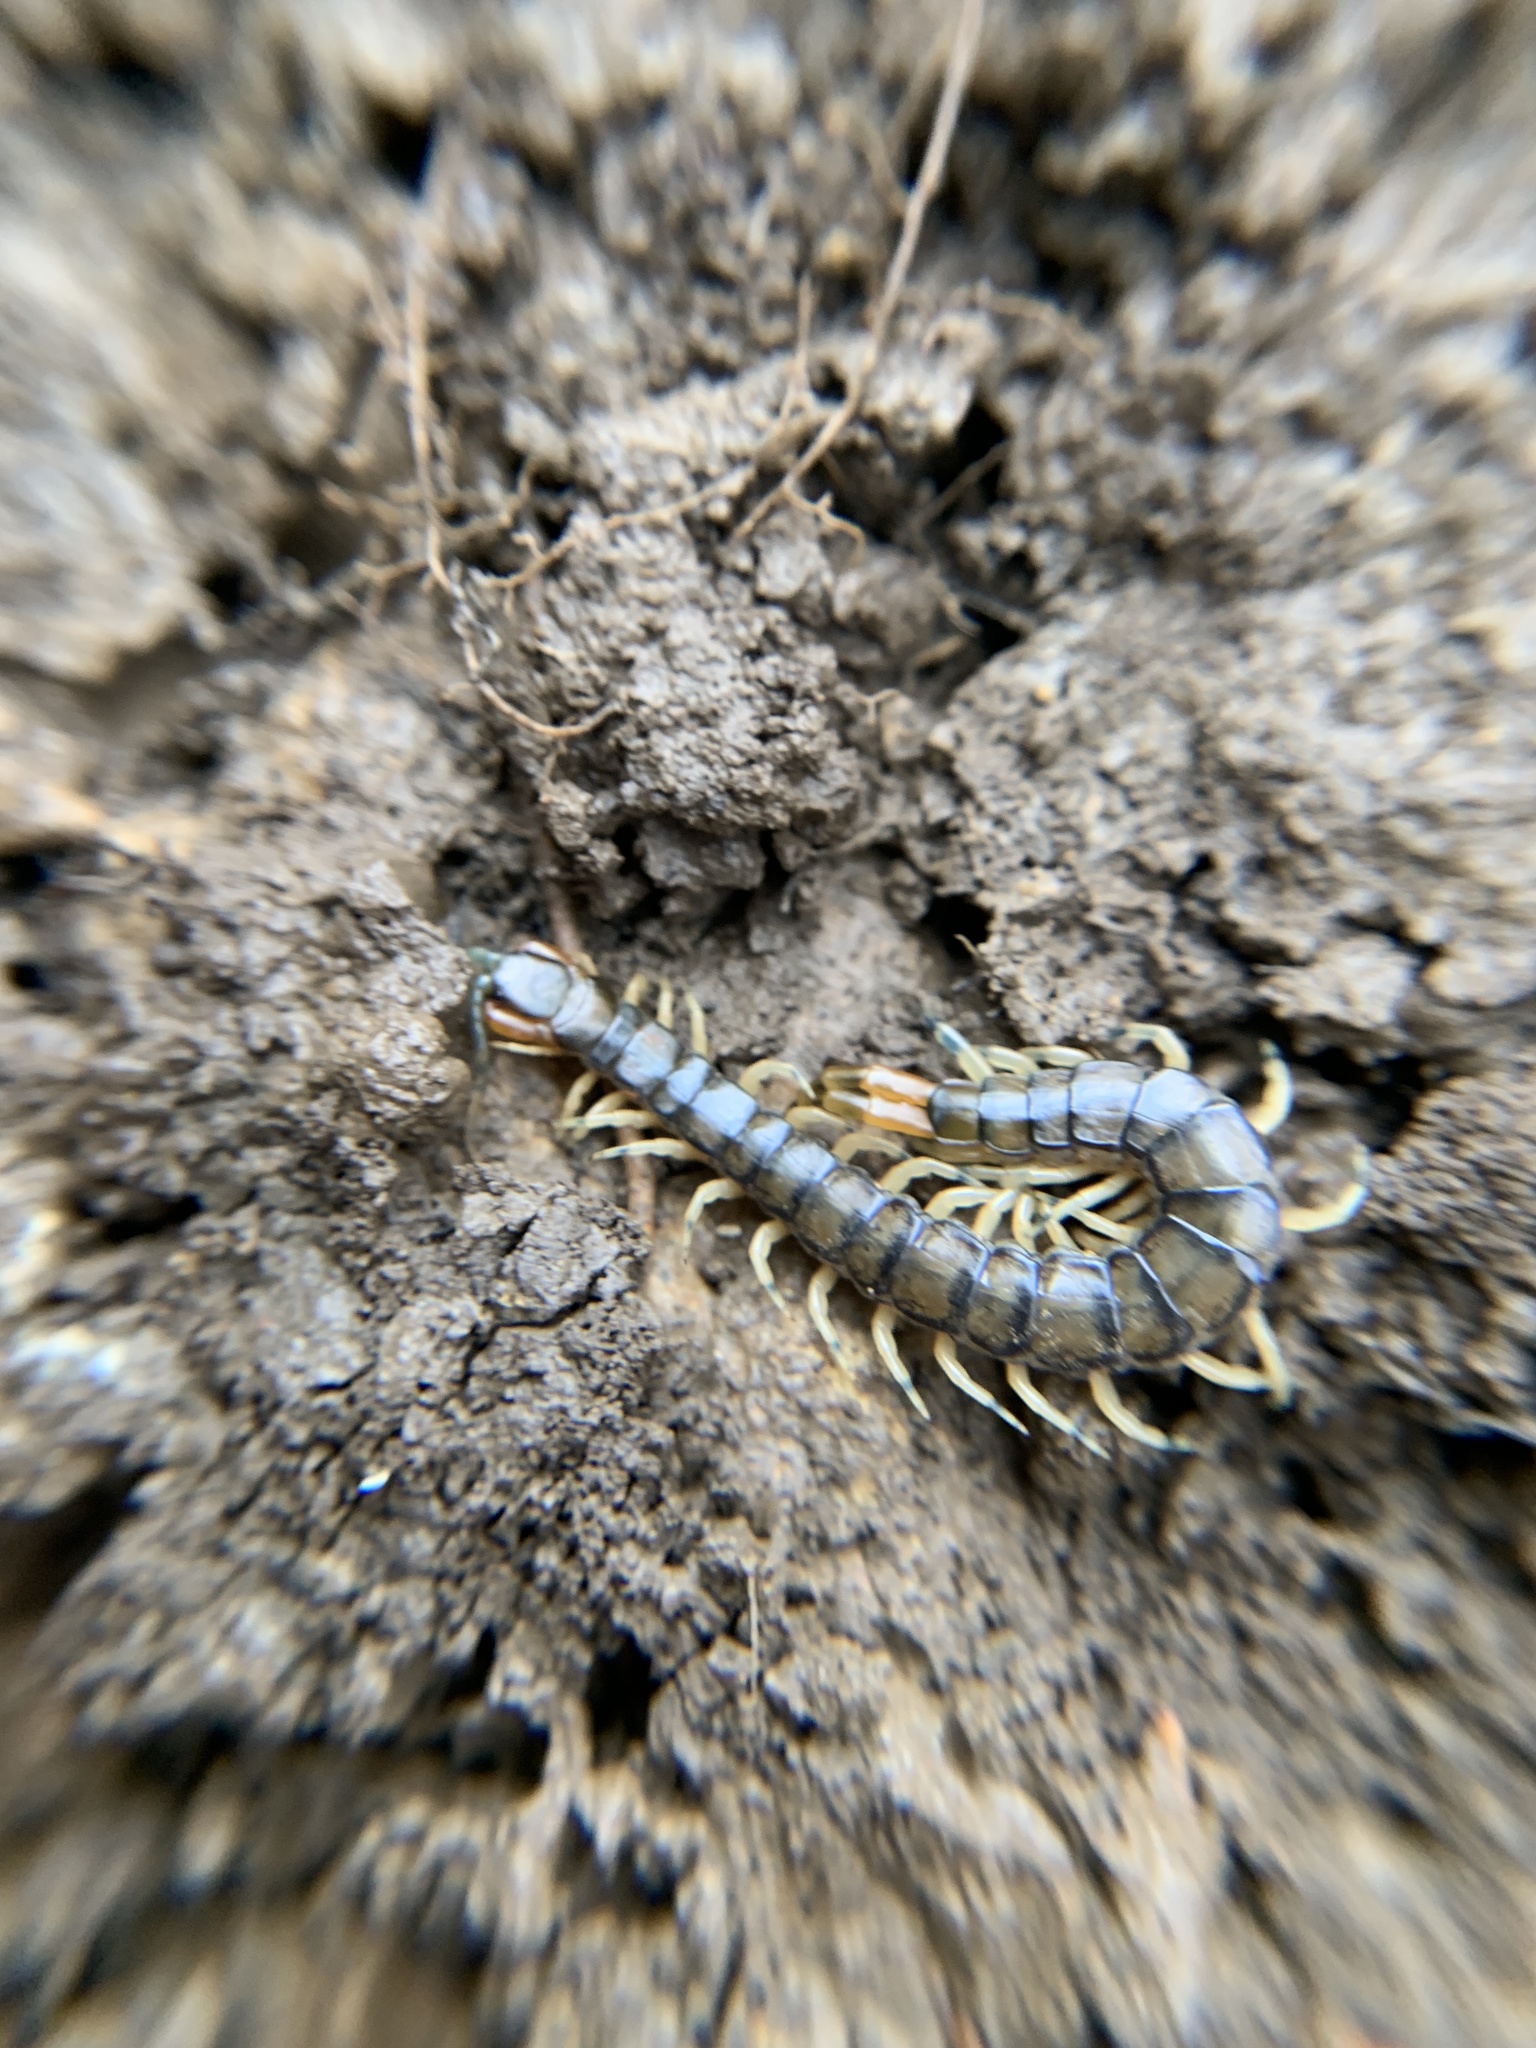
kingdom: Animalia
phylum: Arthropoda
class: Chilopoda
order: Scolopendromorpha
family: Scolopendridae
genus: Hemiscolopendra
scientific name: Hemiscolopendra marginata
